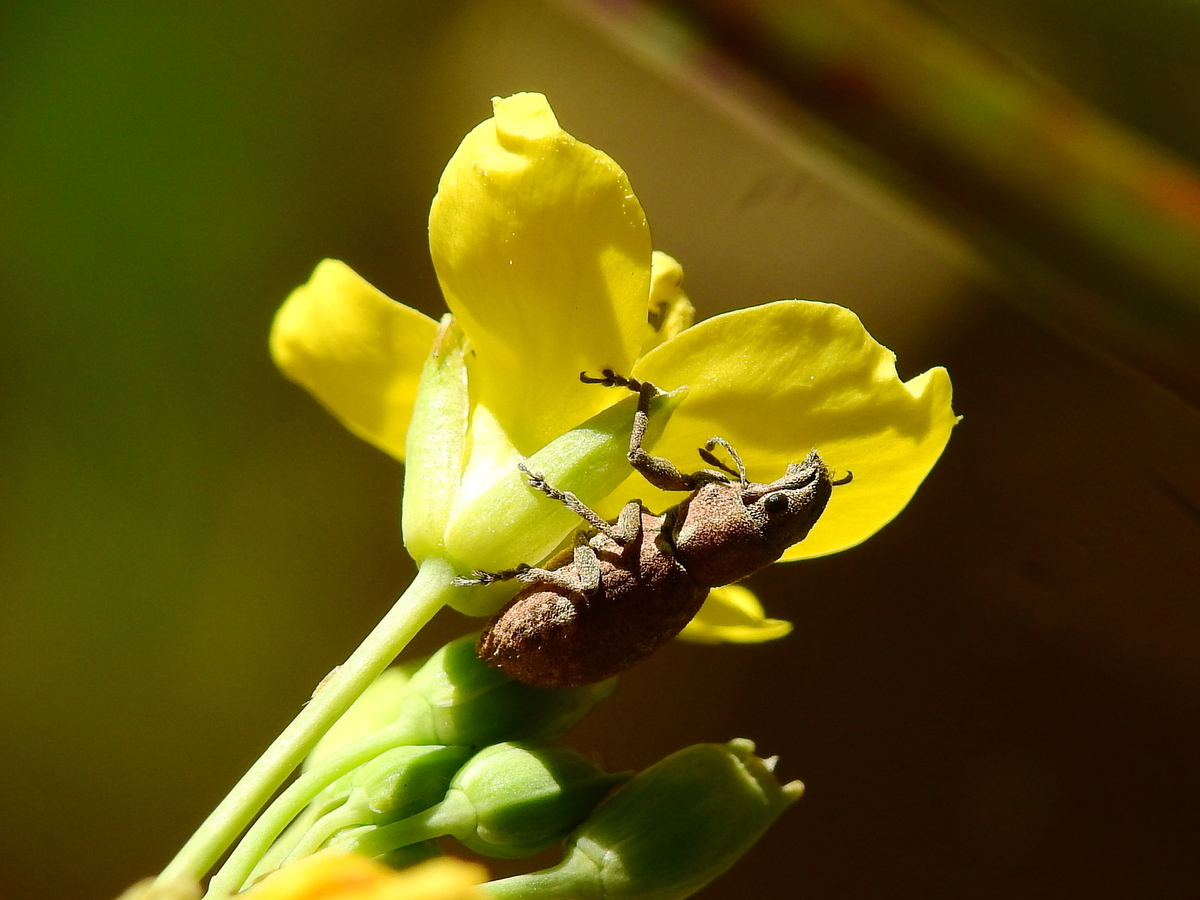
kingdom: Animalia
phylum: Arthropoda
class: Insecta
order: Coleoptera
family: Curculionidae
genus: Naupactus
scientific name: Naupactus cervinus
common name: Fuller rose beetle
